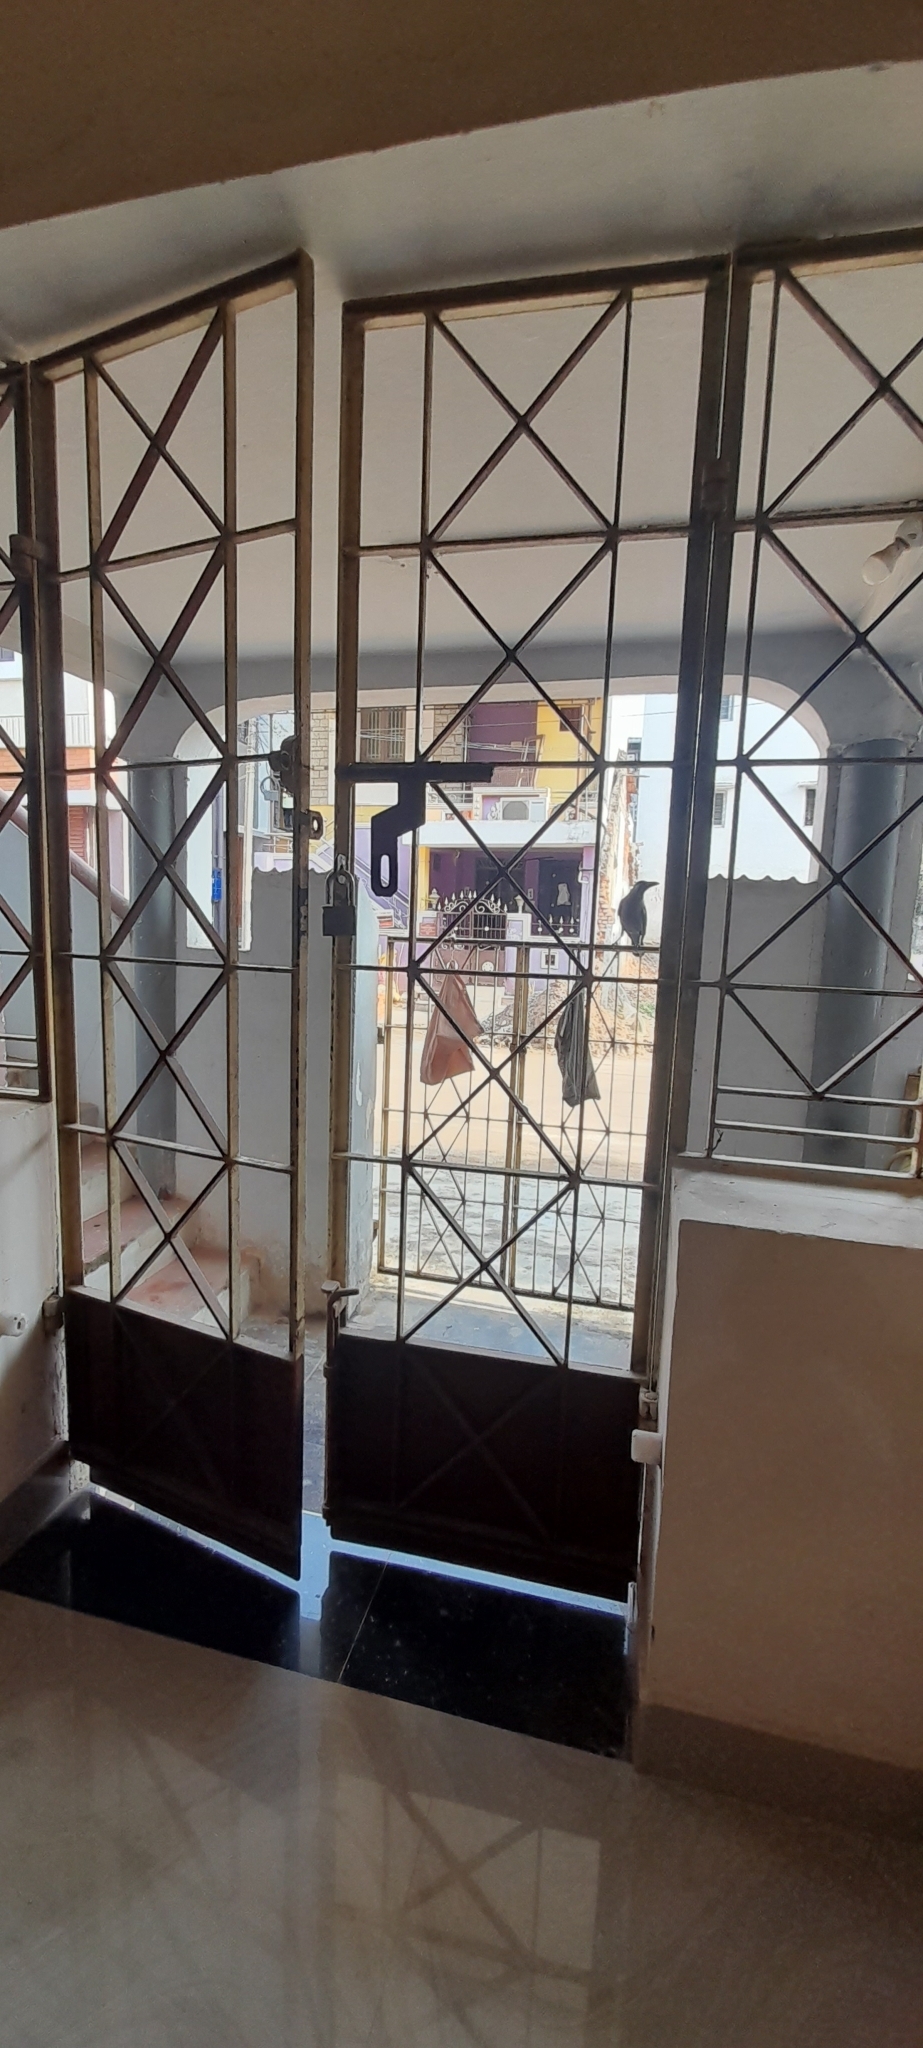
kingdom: Animalia
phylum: Chordata
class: Aves
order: Passeriformes
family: Corvidae
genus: Corvus
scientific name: Corvus splendens
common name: House crow
